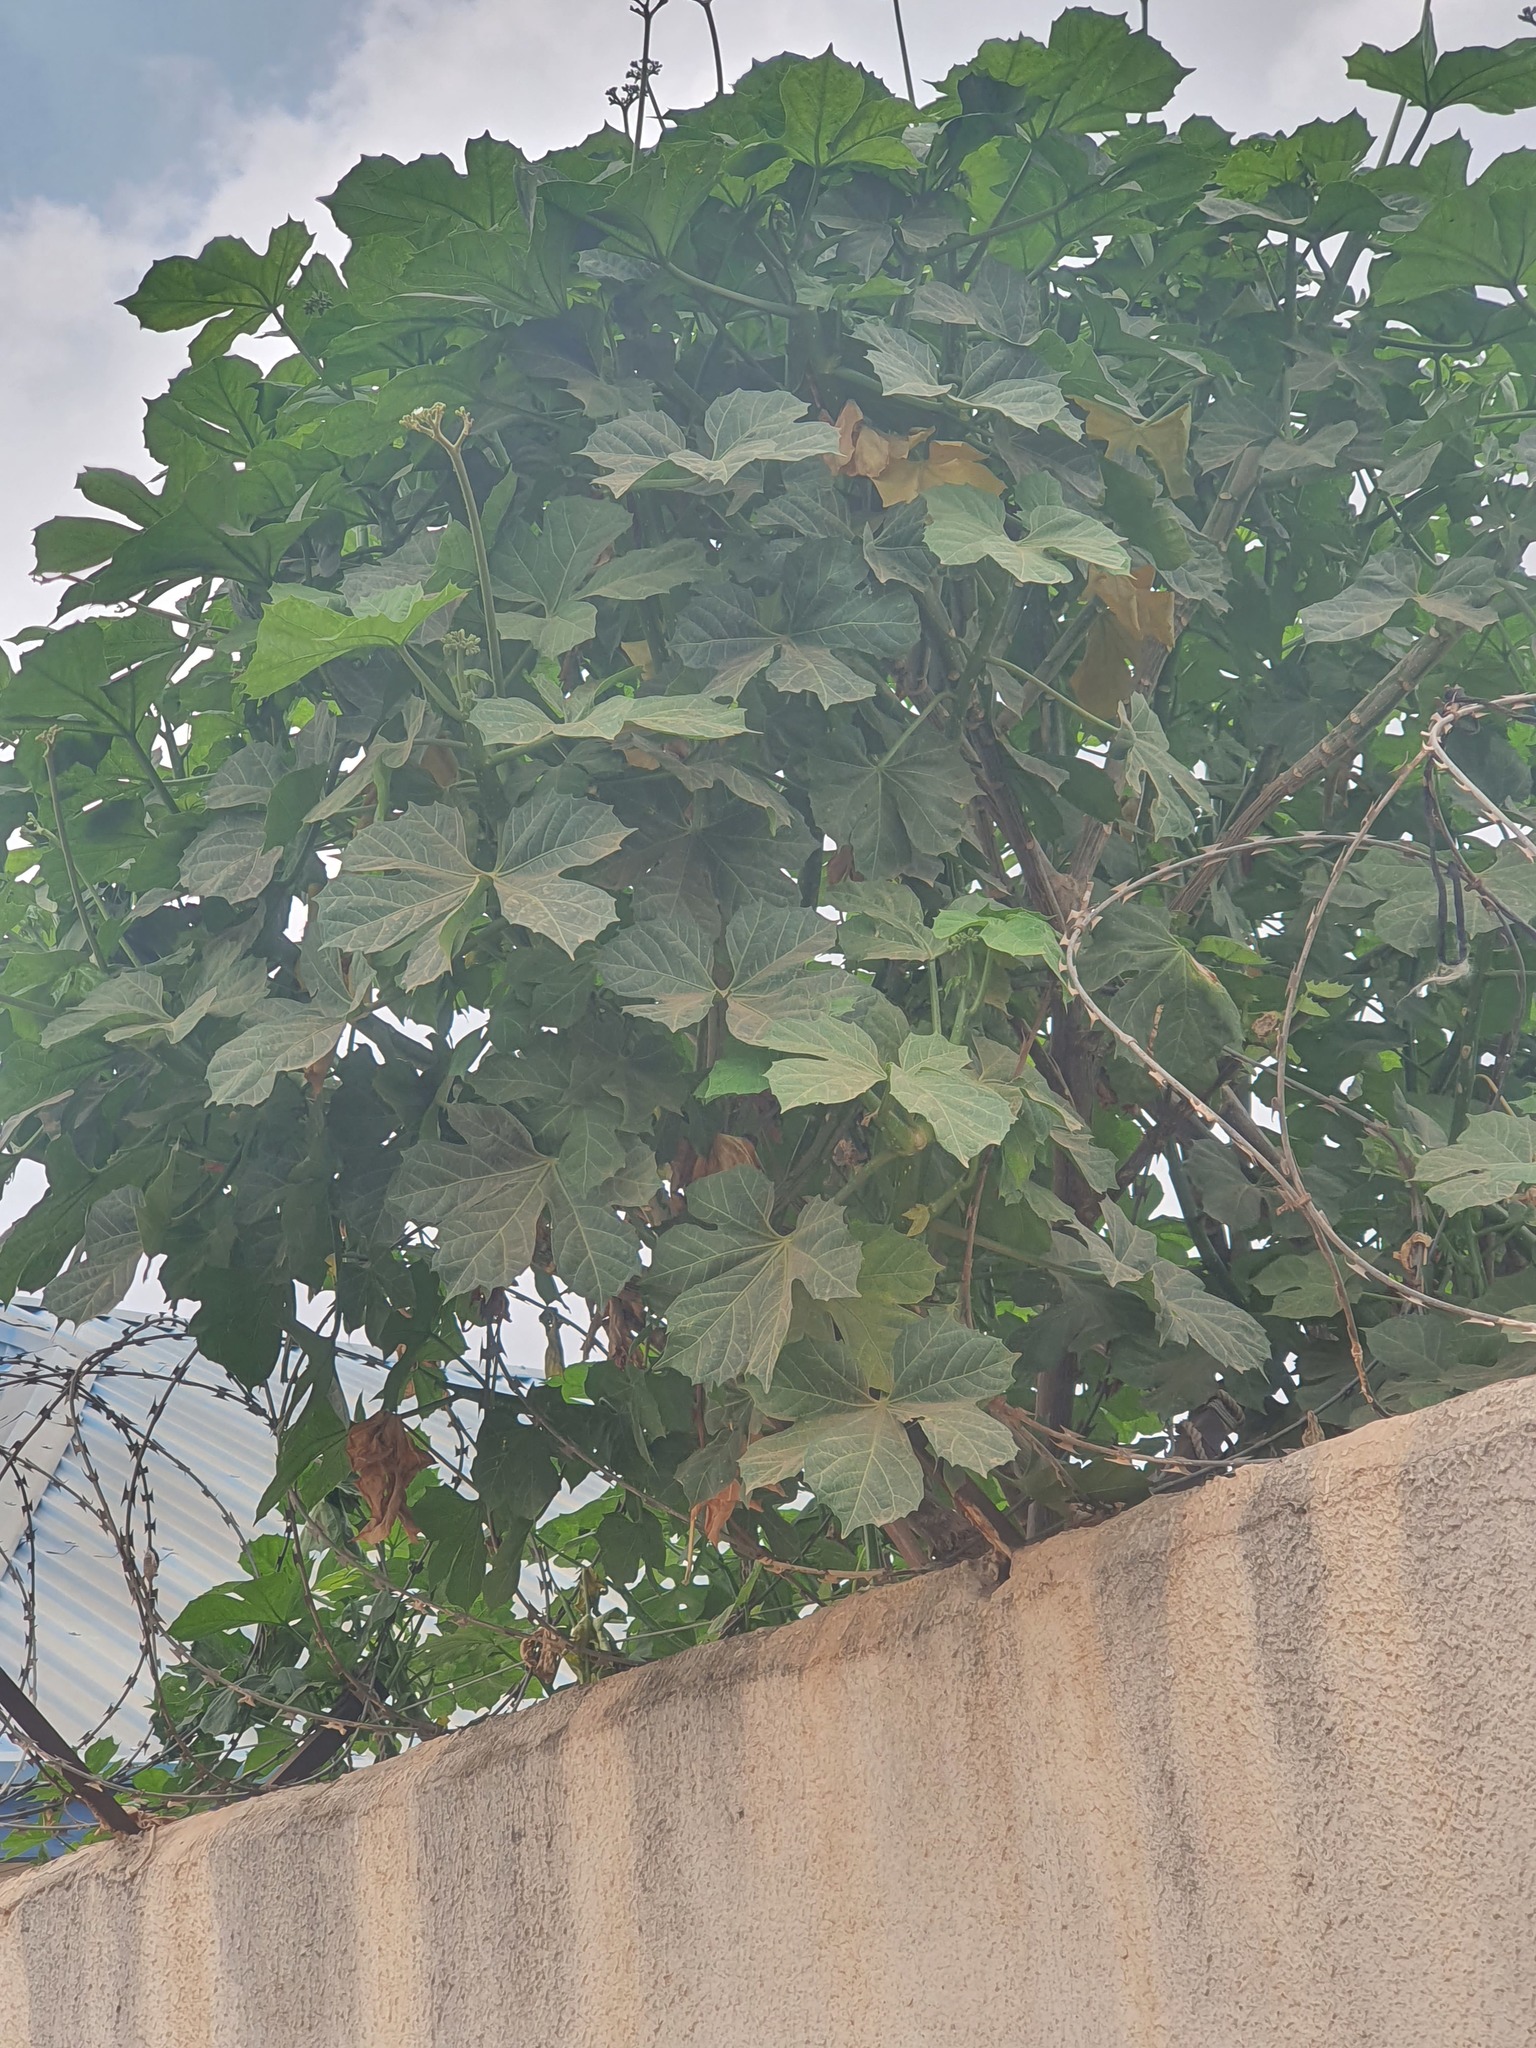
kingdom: Plantae
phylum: Tracheophyta
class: Magnoliopsida
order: Malpighiales
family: Euphorbiaceae
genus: Cnidoscolus
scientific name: Cnidoscolus aconitifolius
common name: Cabbage-star
